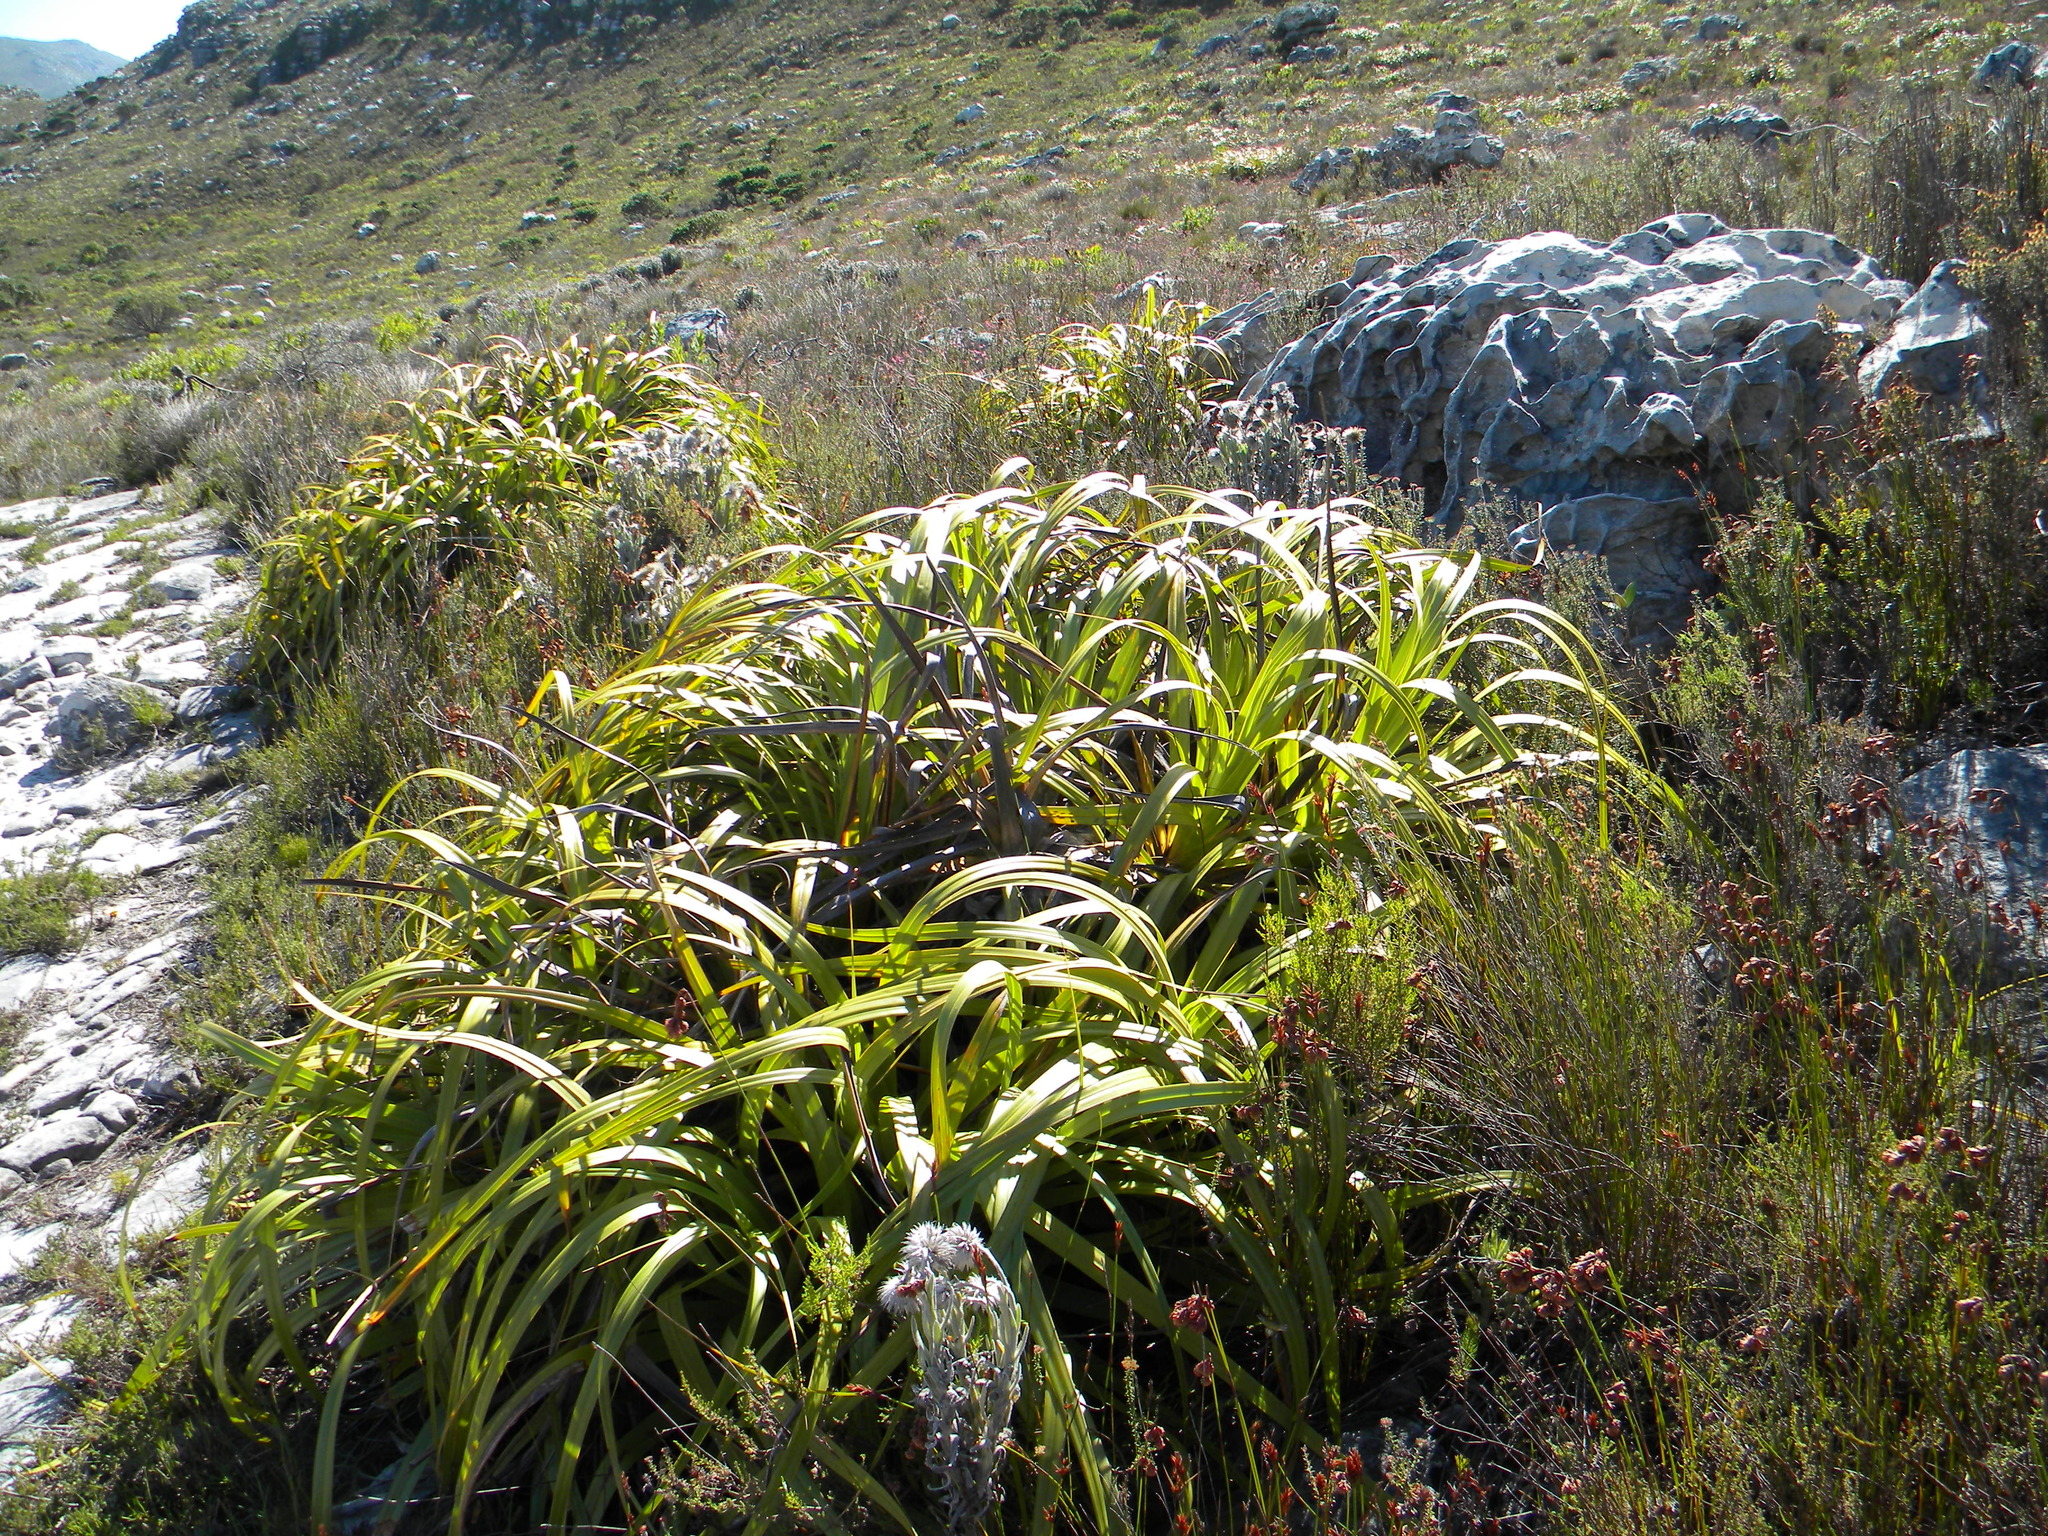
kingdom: Plantae
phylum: Tracheophyta
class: Liliopsida
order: Poales
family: Cyperaceae
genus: Tetraria
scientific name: Tetraria thermalis
